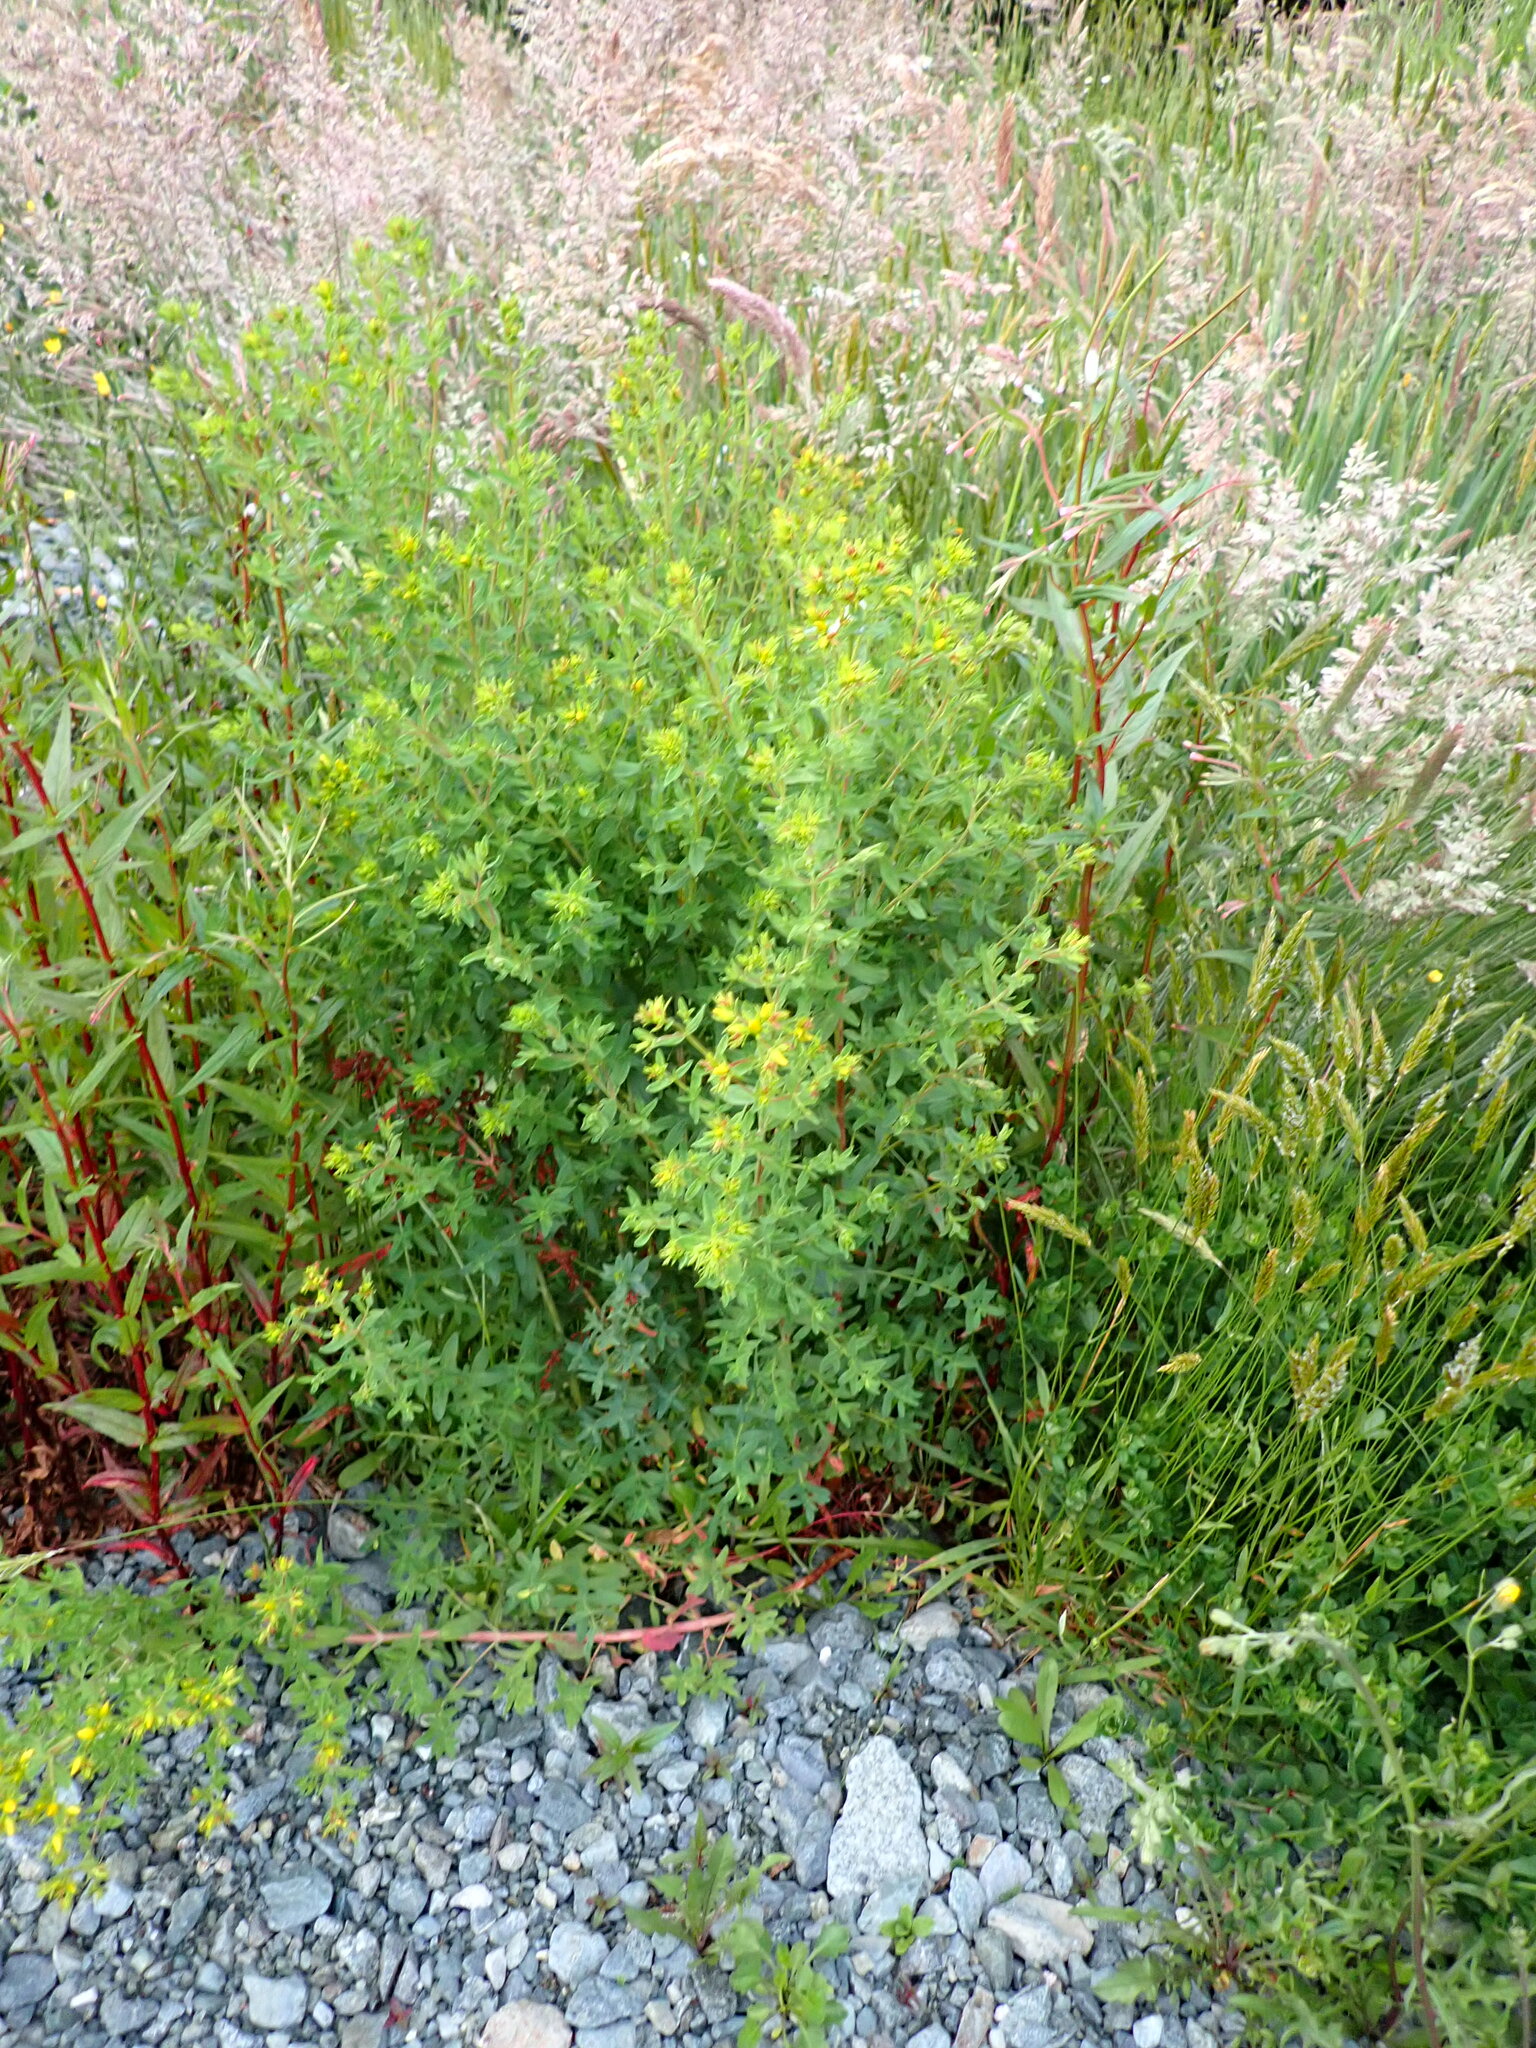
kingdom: Plantae
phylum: Tracheophyta
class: Magnoliopsida
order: Malpighiales
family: Hypericaceae
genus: Hypericum
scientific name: Hypericum perforatum
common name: Common st. johnswort
